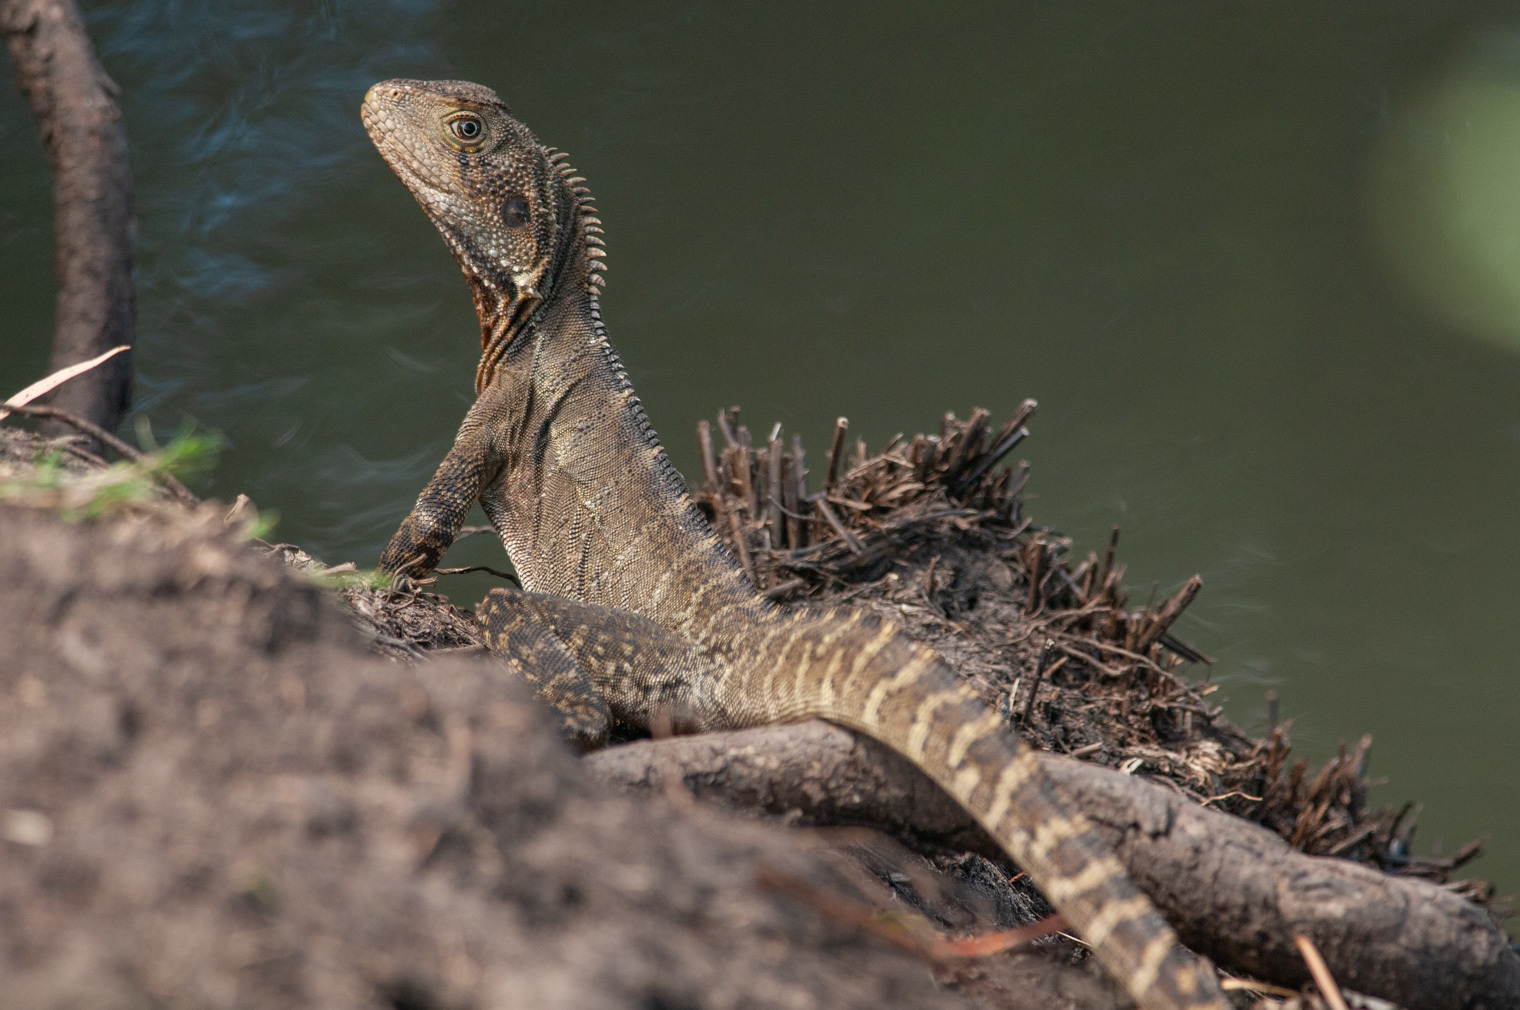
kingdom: Animalia
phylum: Chordata
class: Squamata
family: Agamidae
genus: Intellagama
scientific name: Intellagama lesueurii
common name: Eastern water dragon
